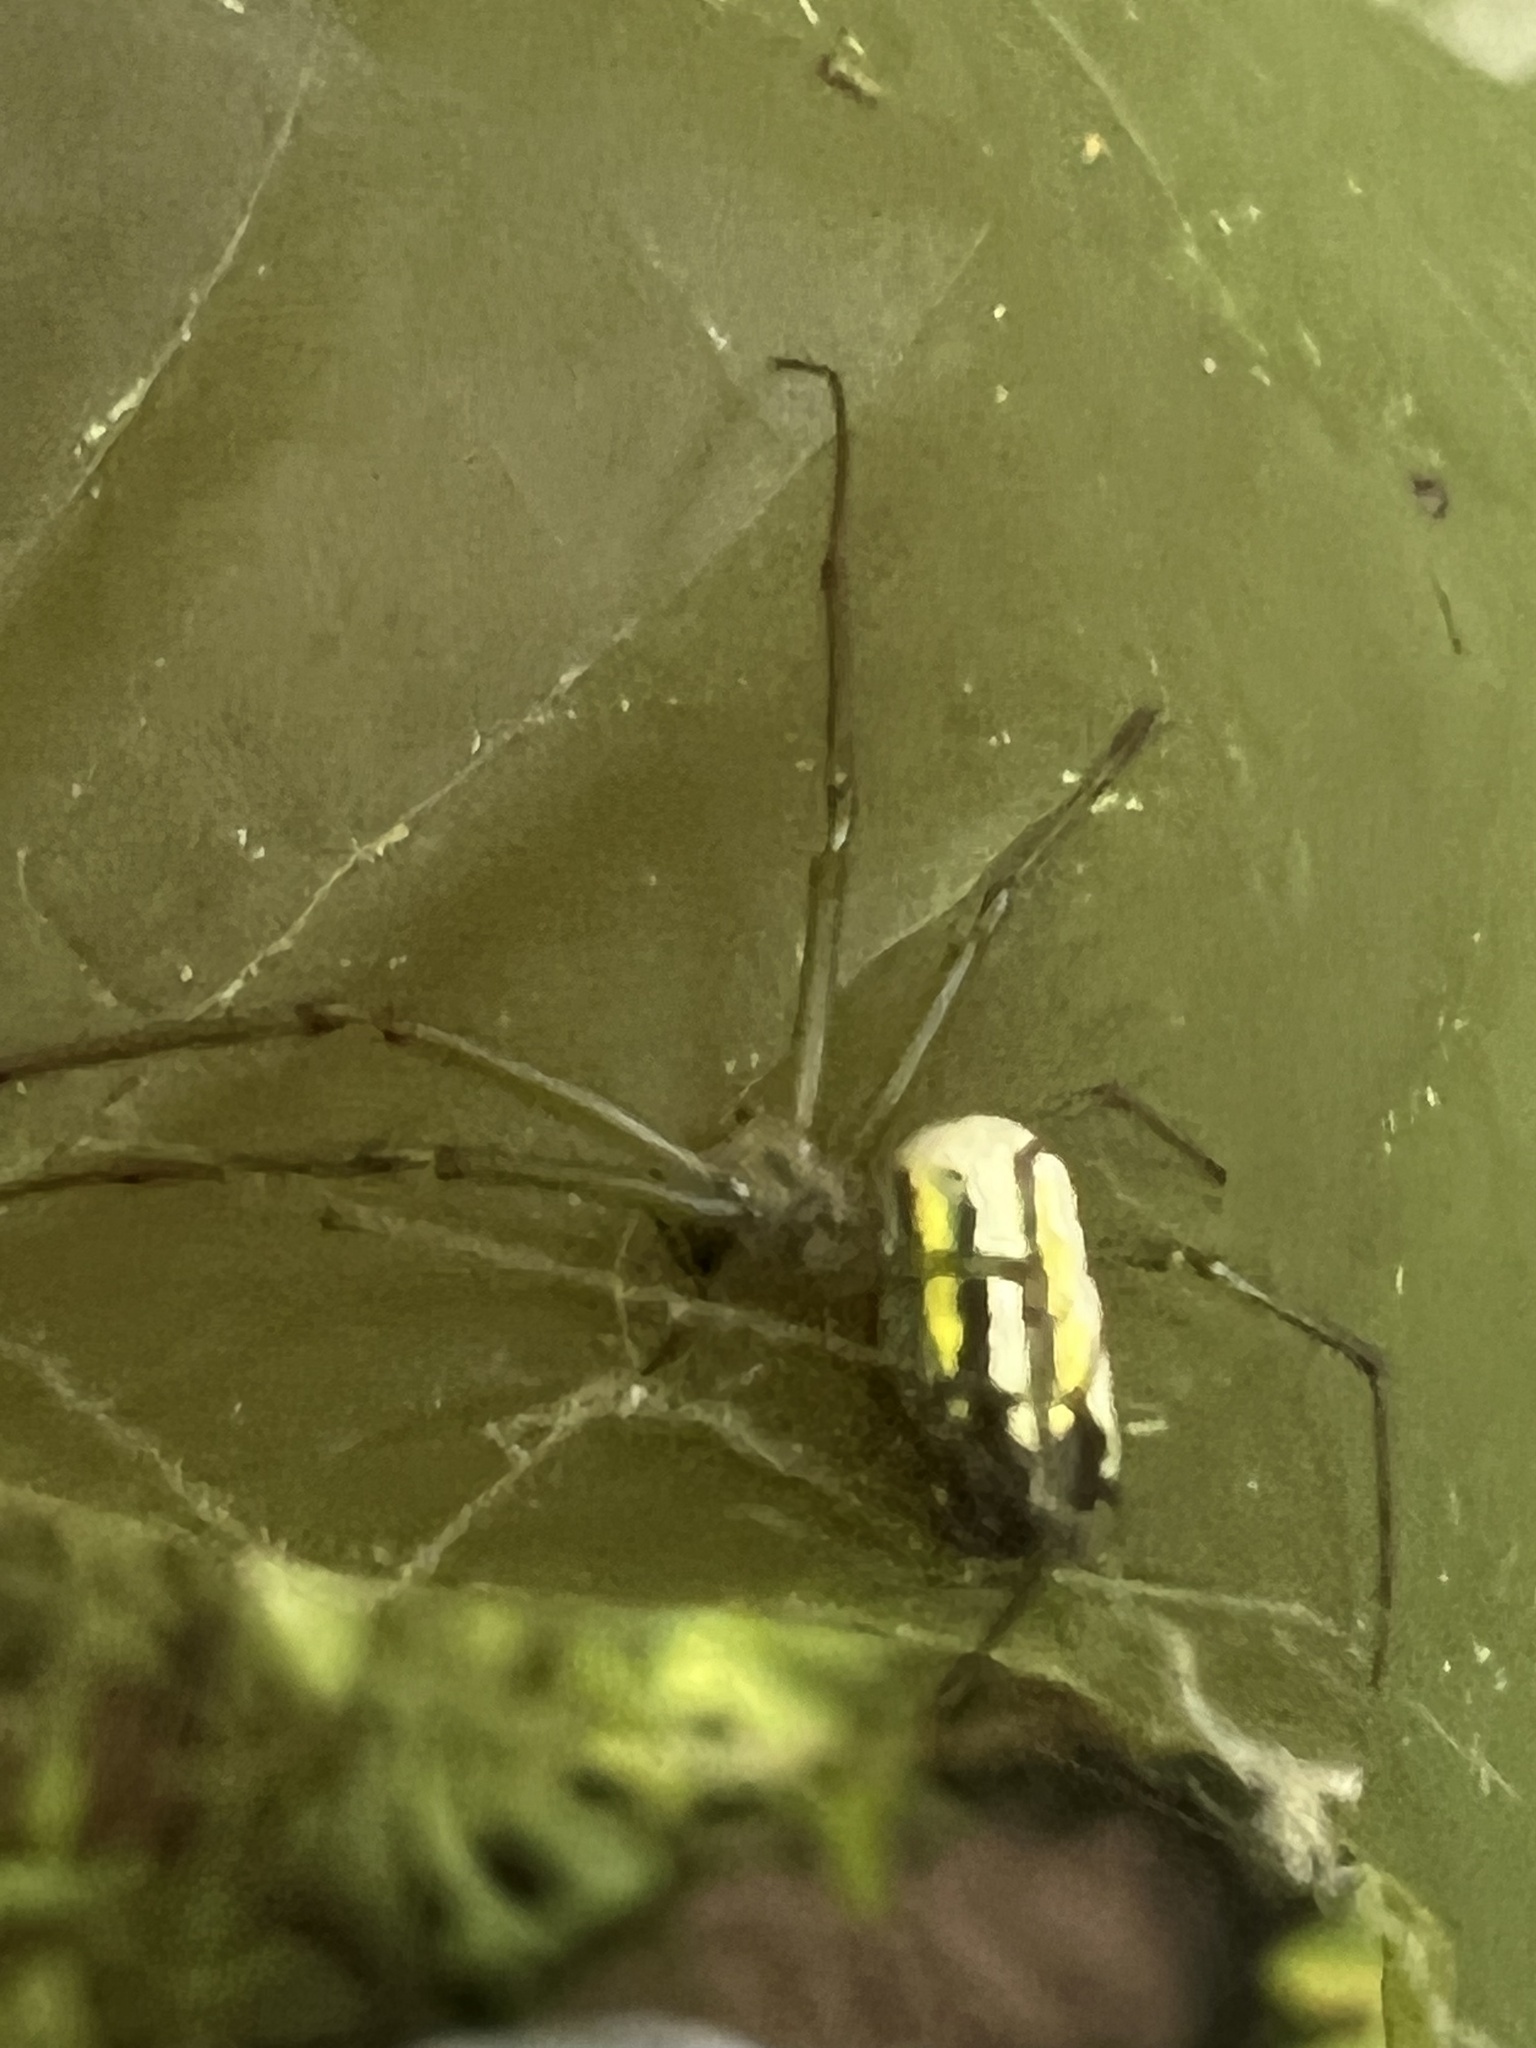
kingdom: Animalia
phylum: Arthropoda
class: Arachnida
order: Araneae
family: Tetragnathidae
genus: Leucauge
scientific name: Leucauge venusta
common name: Longjawed orb weavers
